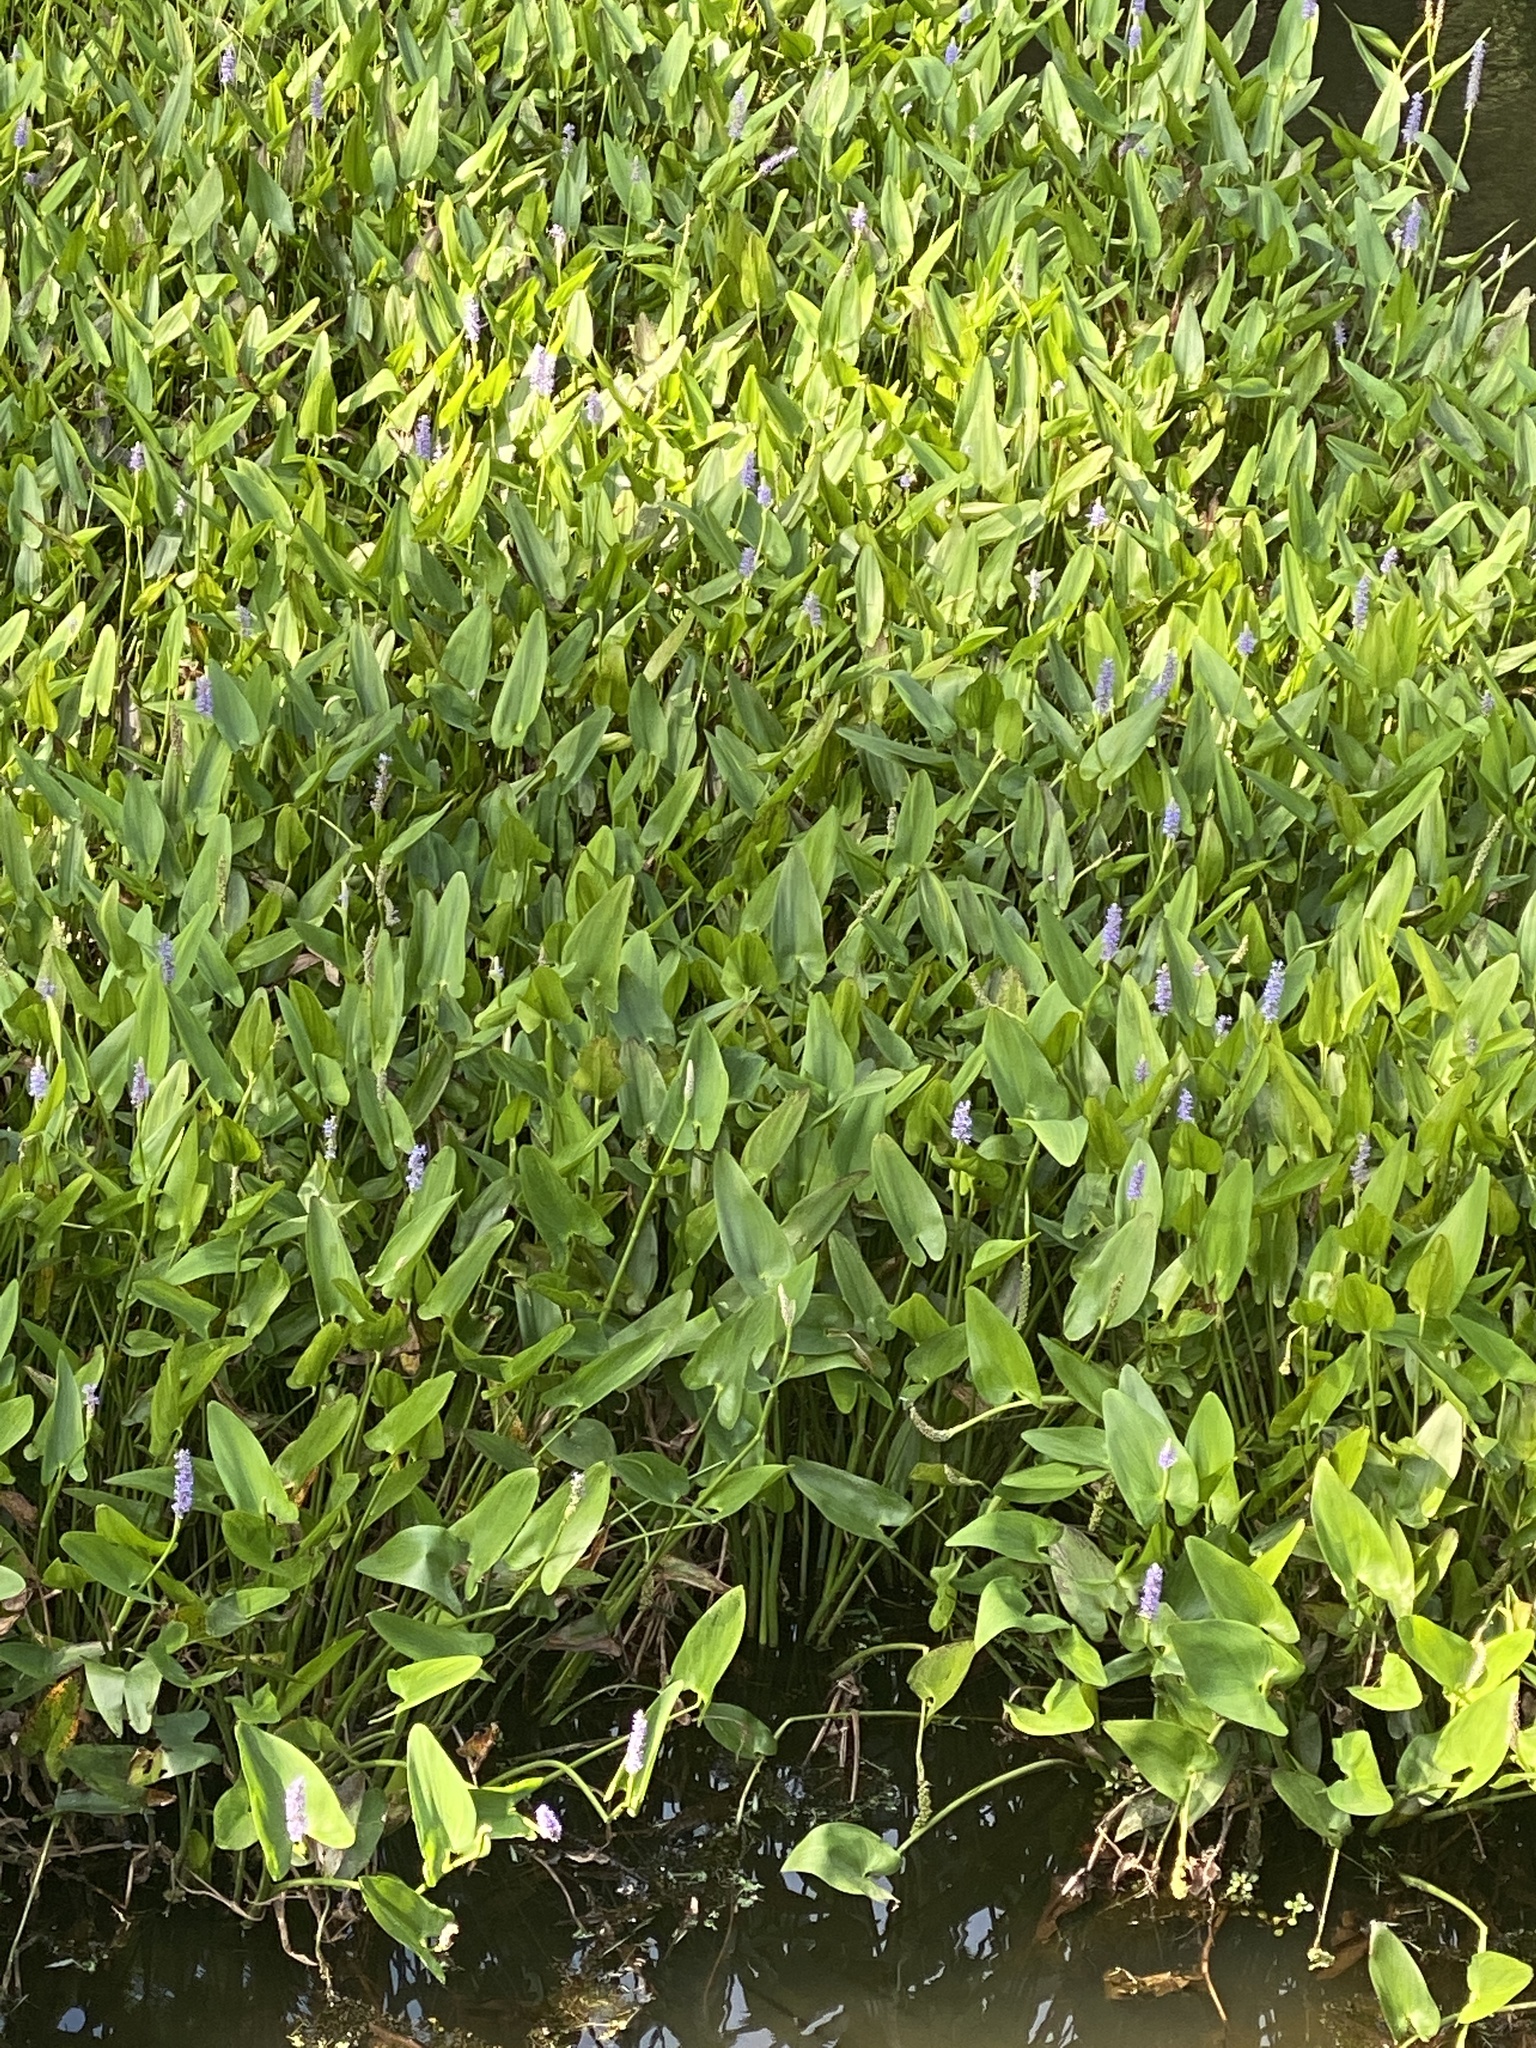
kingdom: Plantae
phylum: Tracheophyta
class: Liliopsida
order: Commelinales
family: Pontederiaceae
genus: Pontederia
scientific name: Pontederia cordata
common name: Pickerelweed
